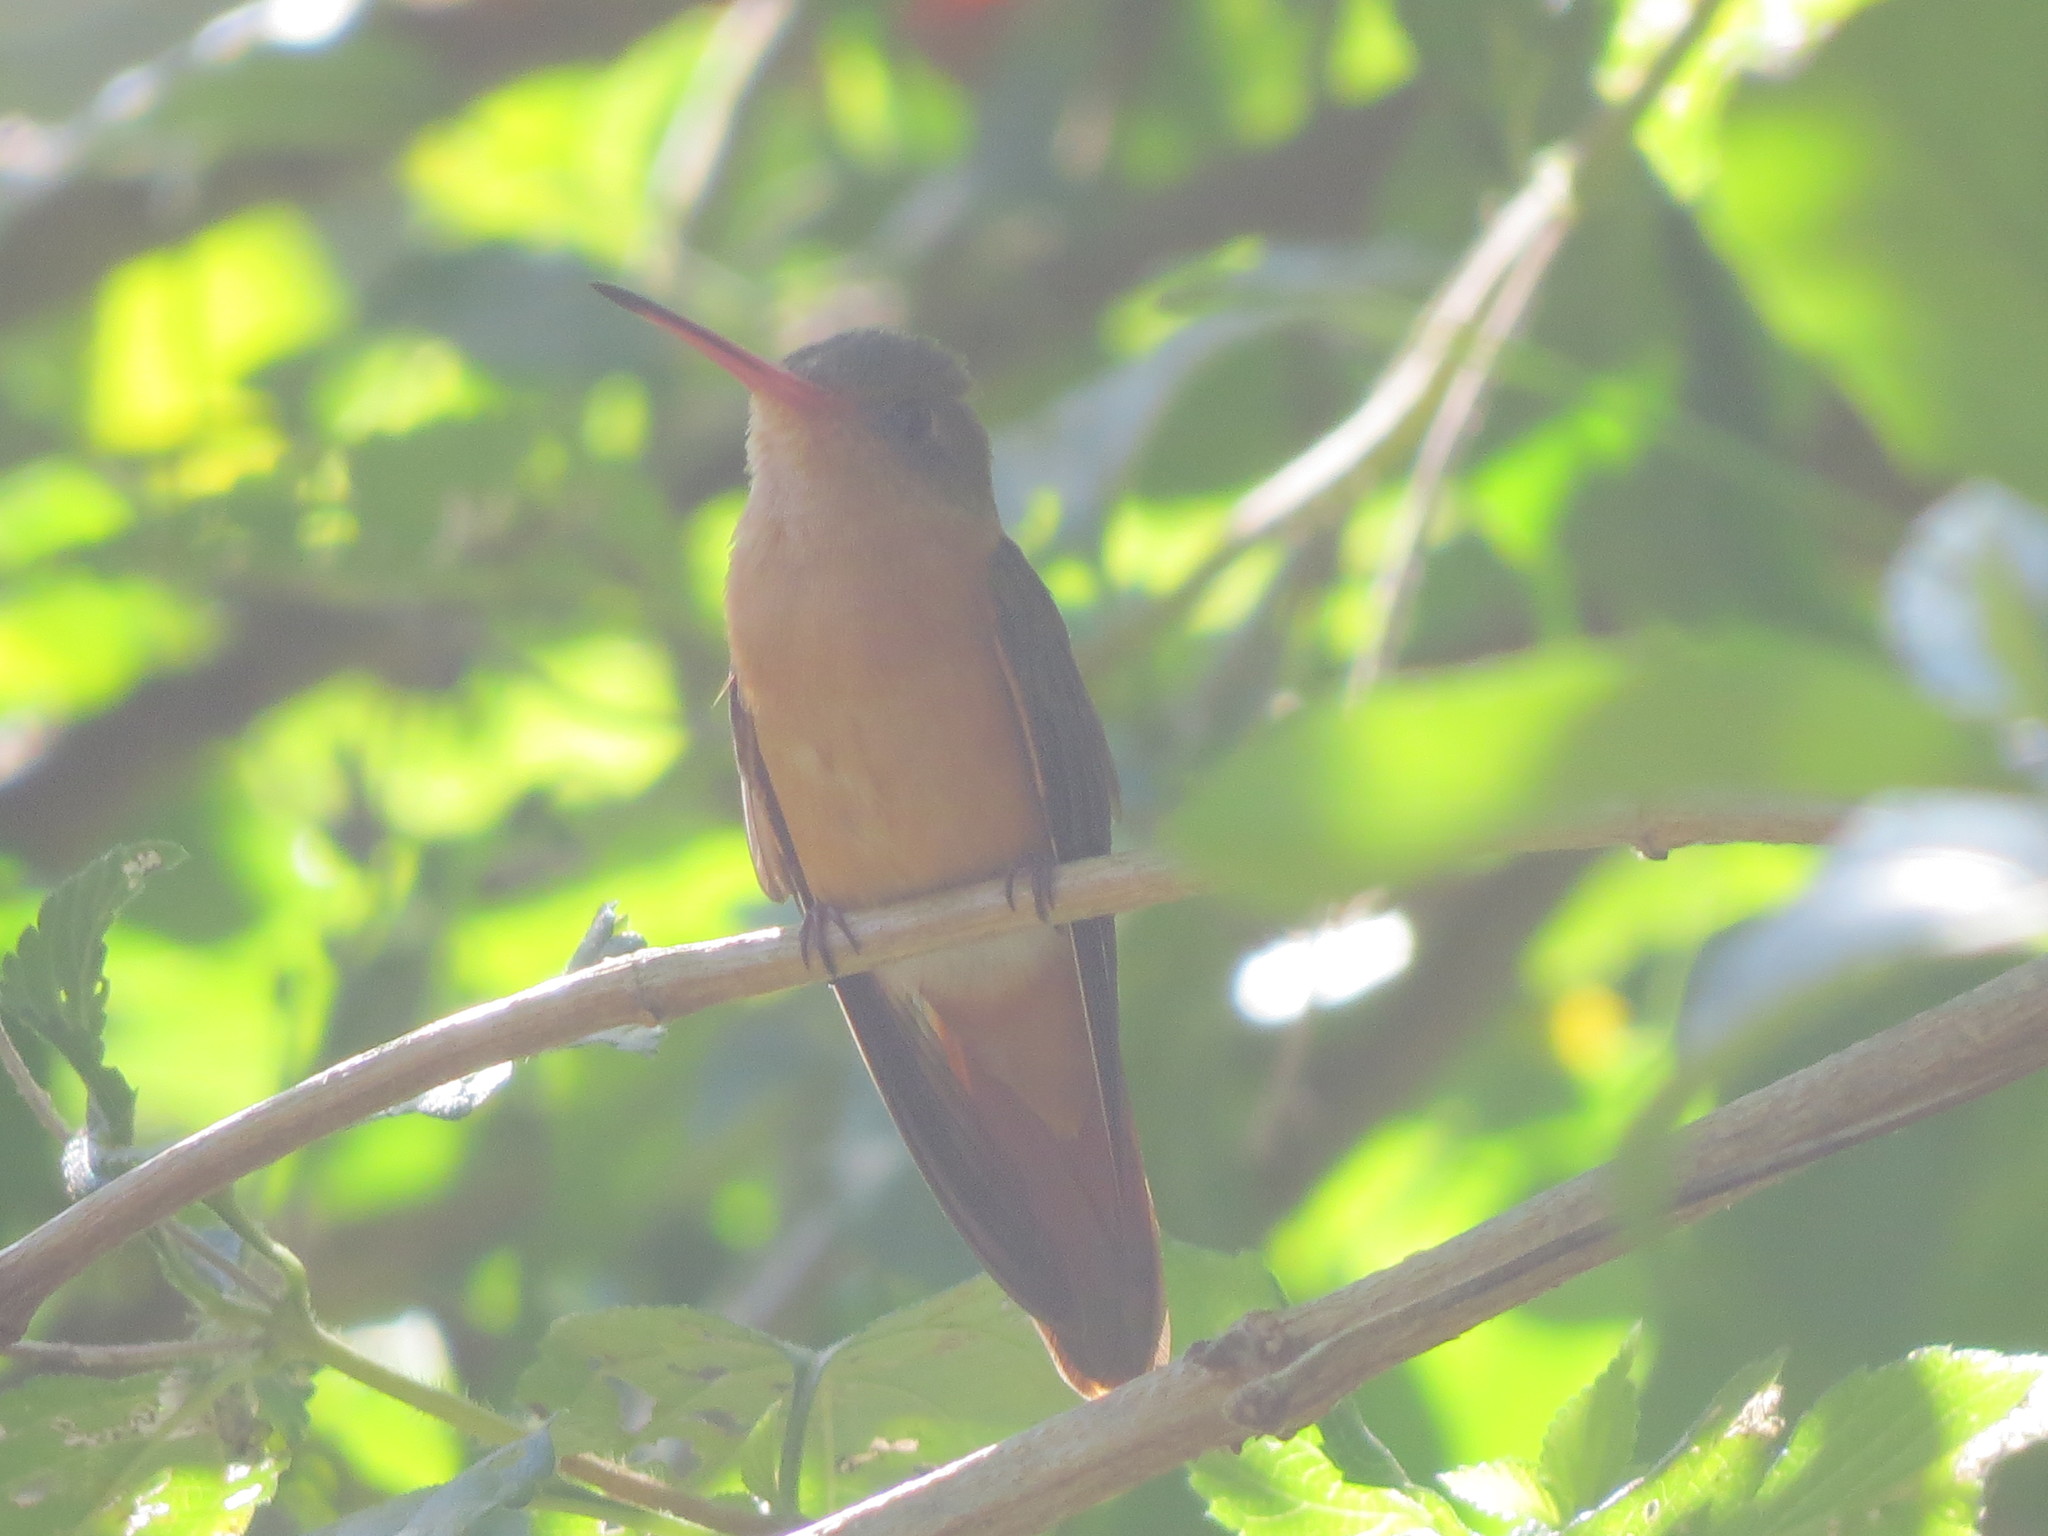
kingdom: Animalia
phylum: Chordata
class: Aves
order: Apodiformes
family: Trochilidae
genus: Amazilia
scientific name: Amazilia rutila
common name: Cinnamon hummingbird
